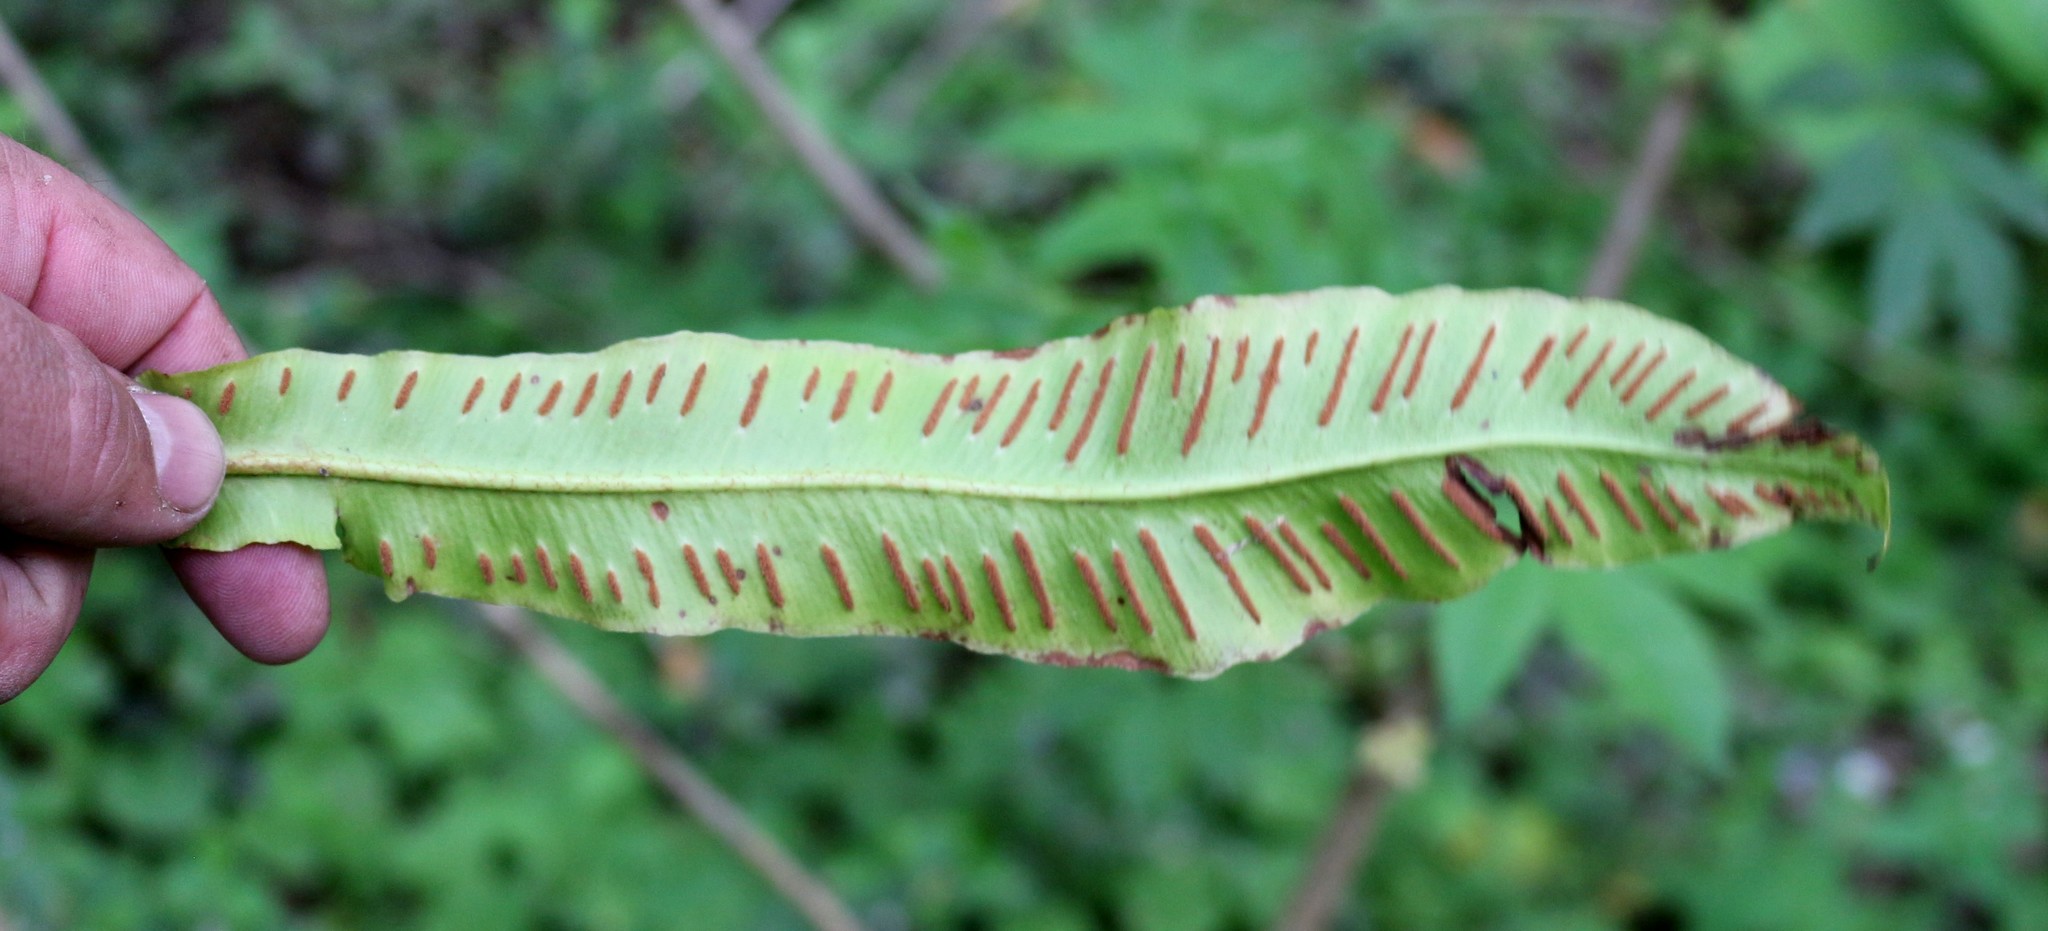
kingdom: Plantae
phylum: Tracheophyta
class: Polypodiopsida
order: Polypodiales
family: Aspleniaceae
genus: Asplenium
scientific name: Asplenium scolopendrium
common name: Hart's-tongue fern
